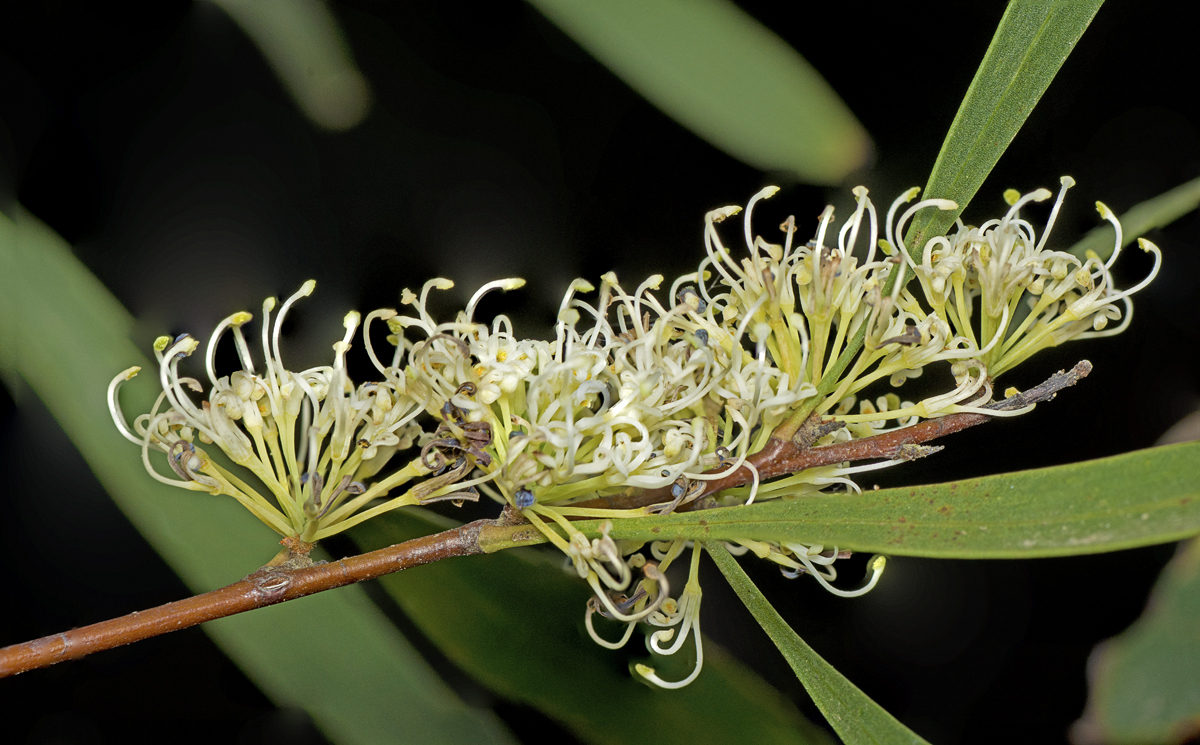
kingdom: Plantae
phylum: Tracheophyta
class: Magnoliopsida
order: Proteales
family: Proteaceae
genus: Hakea
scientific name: Hakea florulenta
